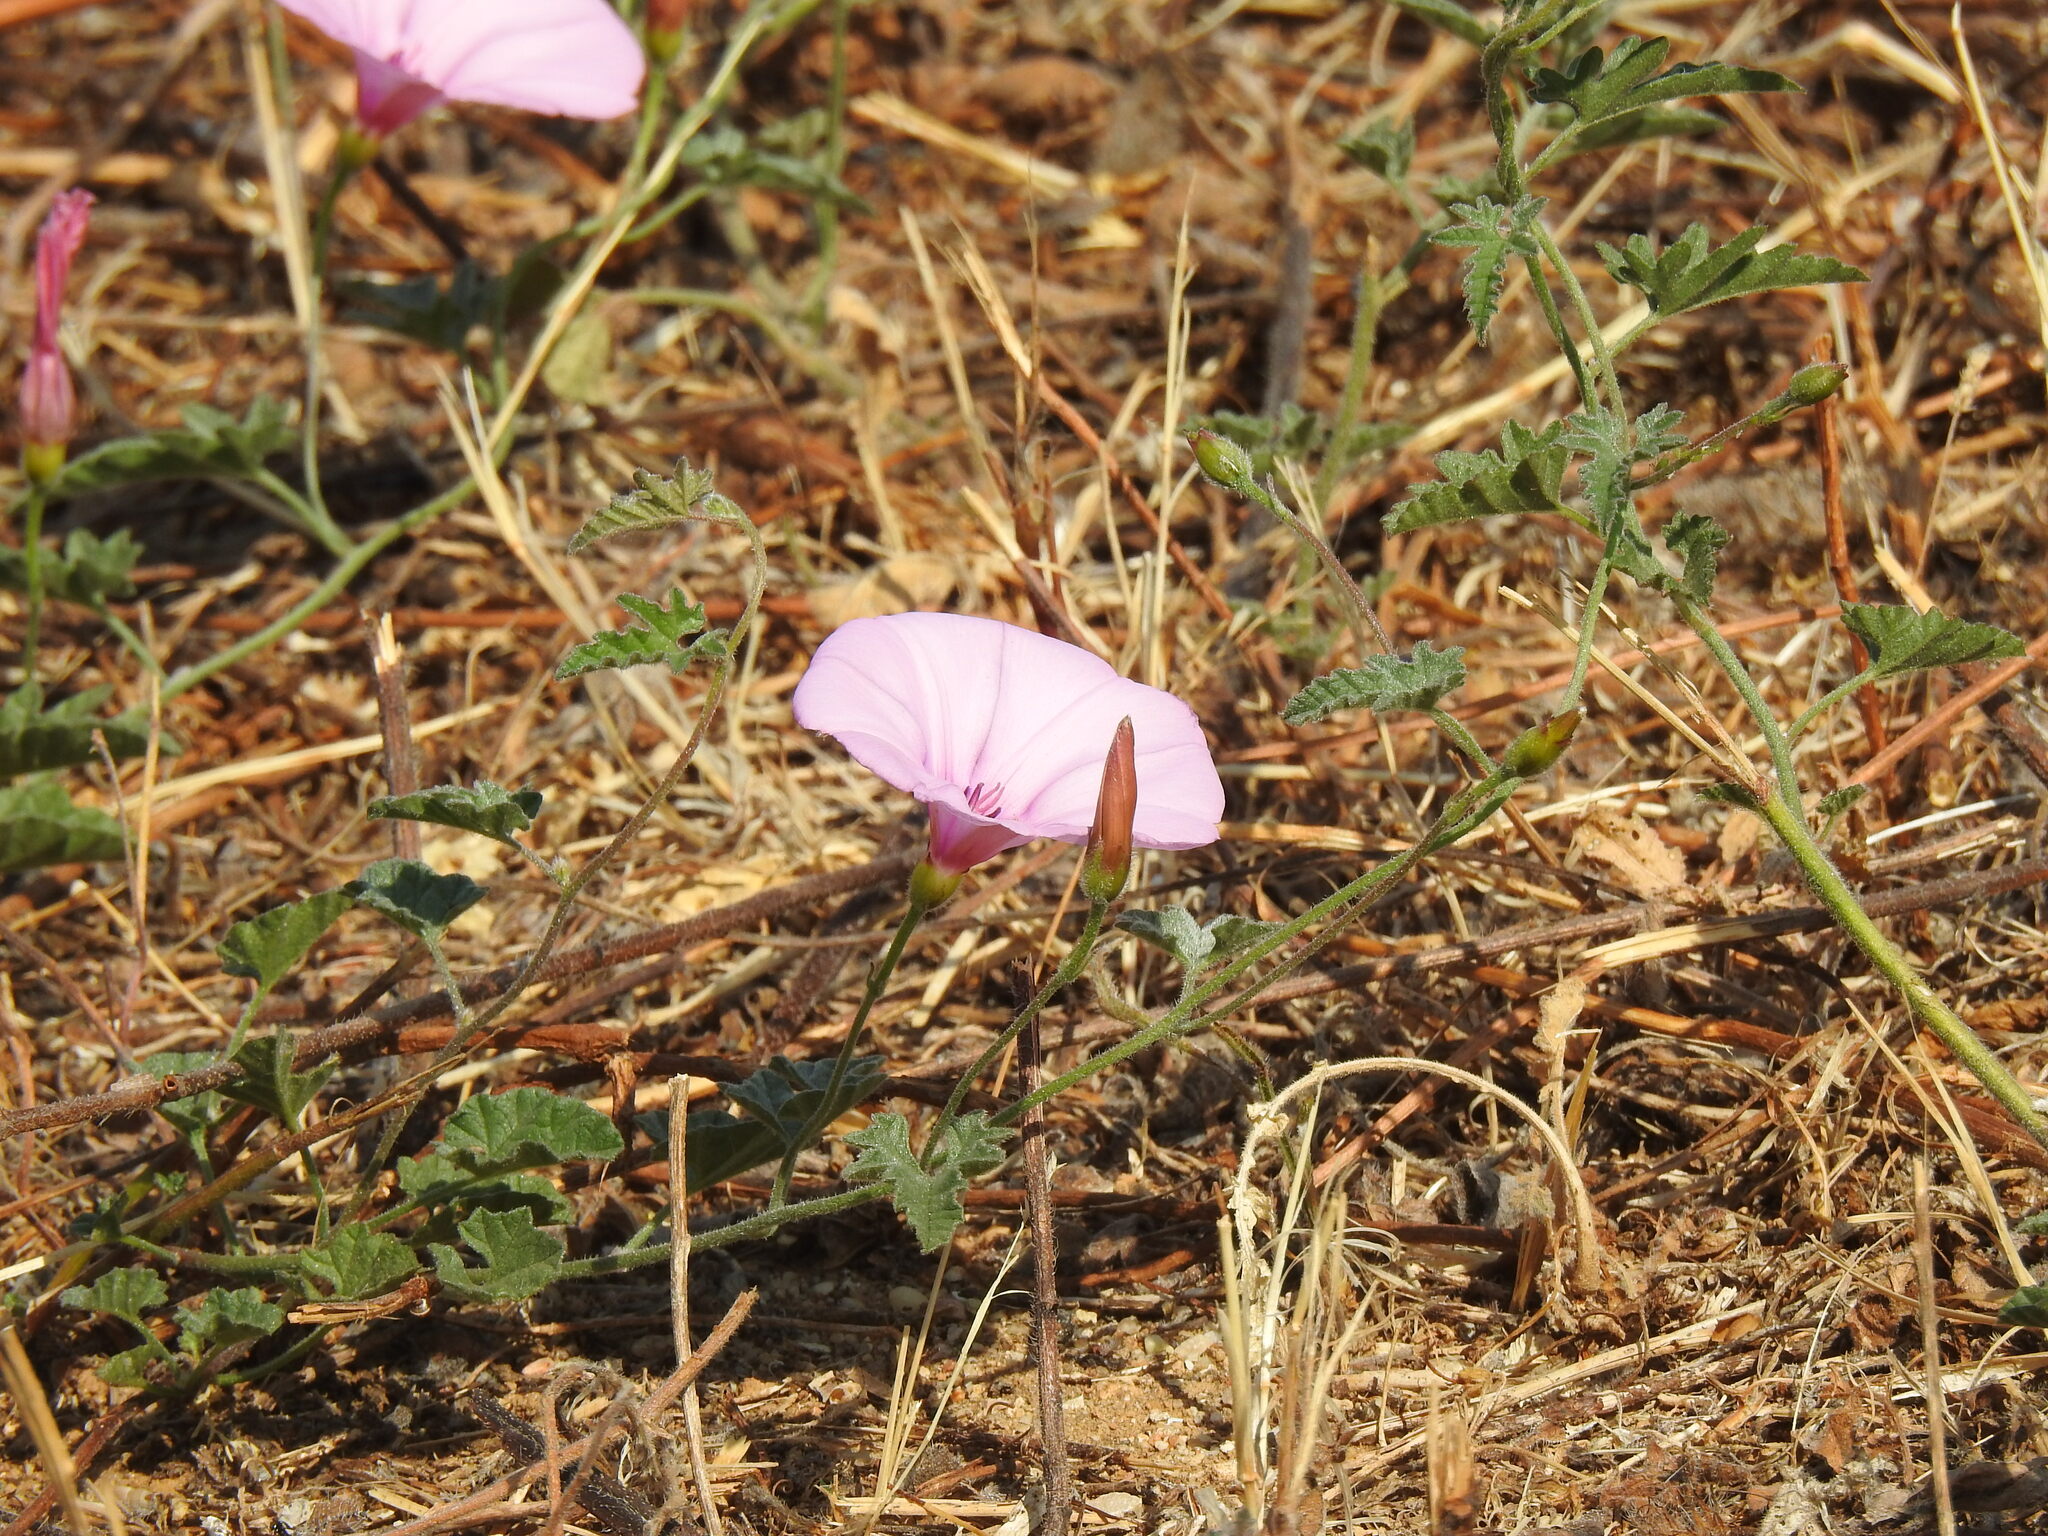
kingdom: Plantae
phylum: Tracheophyta
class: Magnoliopsida
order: Solanales
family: Convolvulaceae
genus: Convolvulus
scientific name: Convolvulus althaeoides
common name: Mallow bindweed
